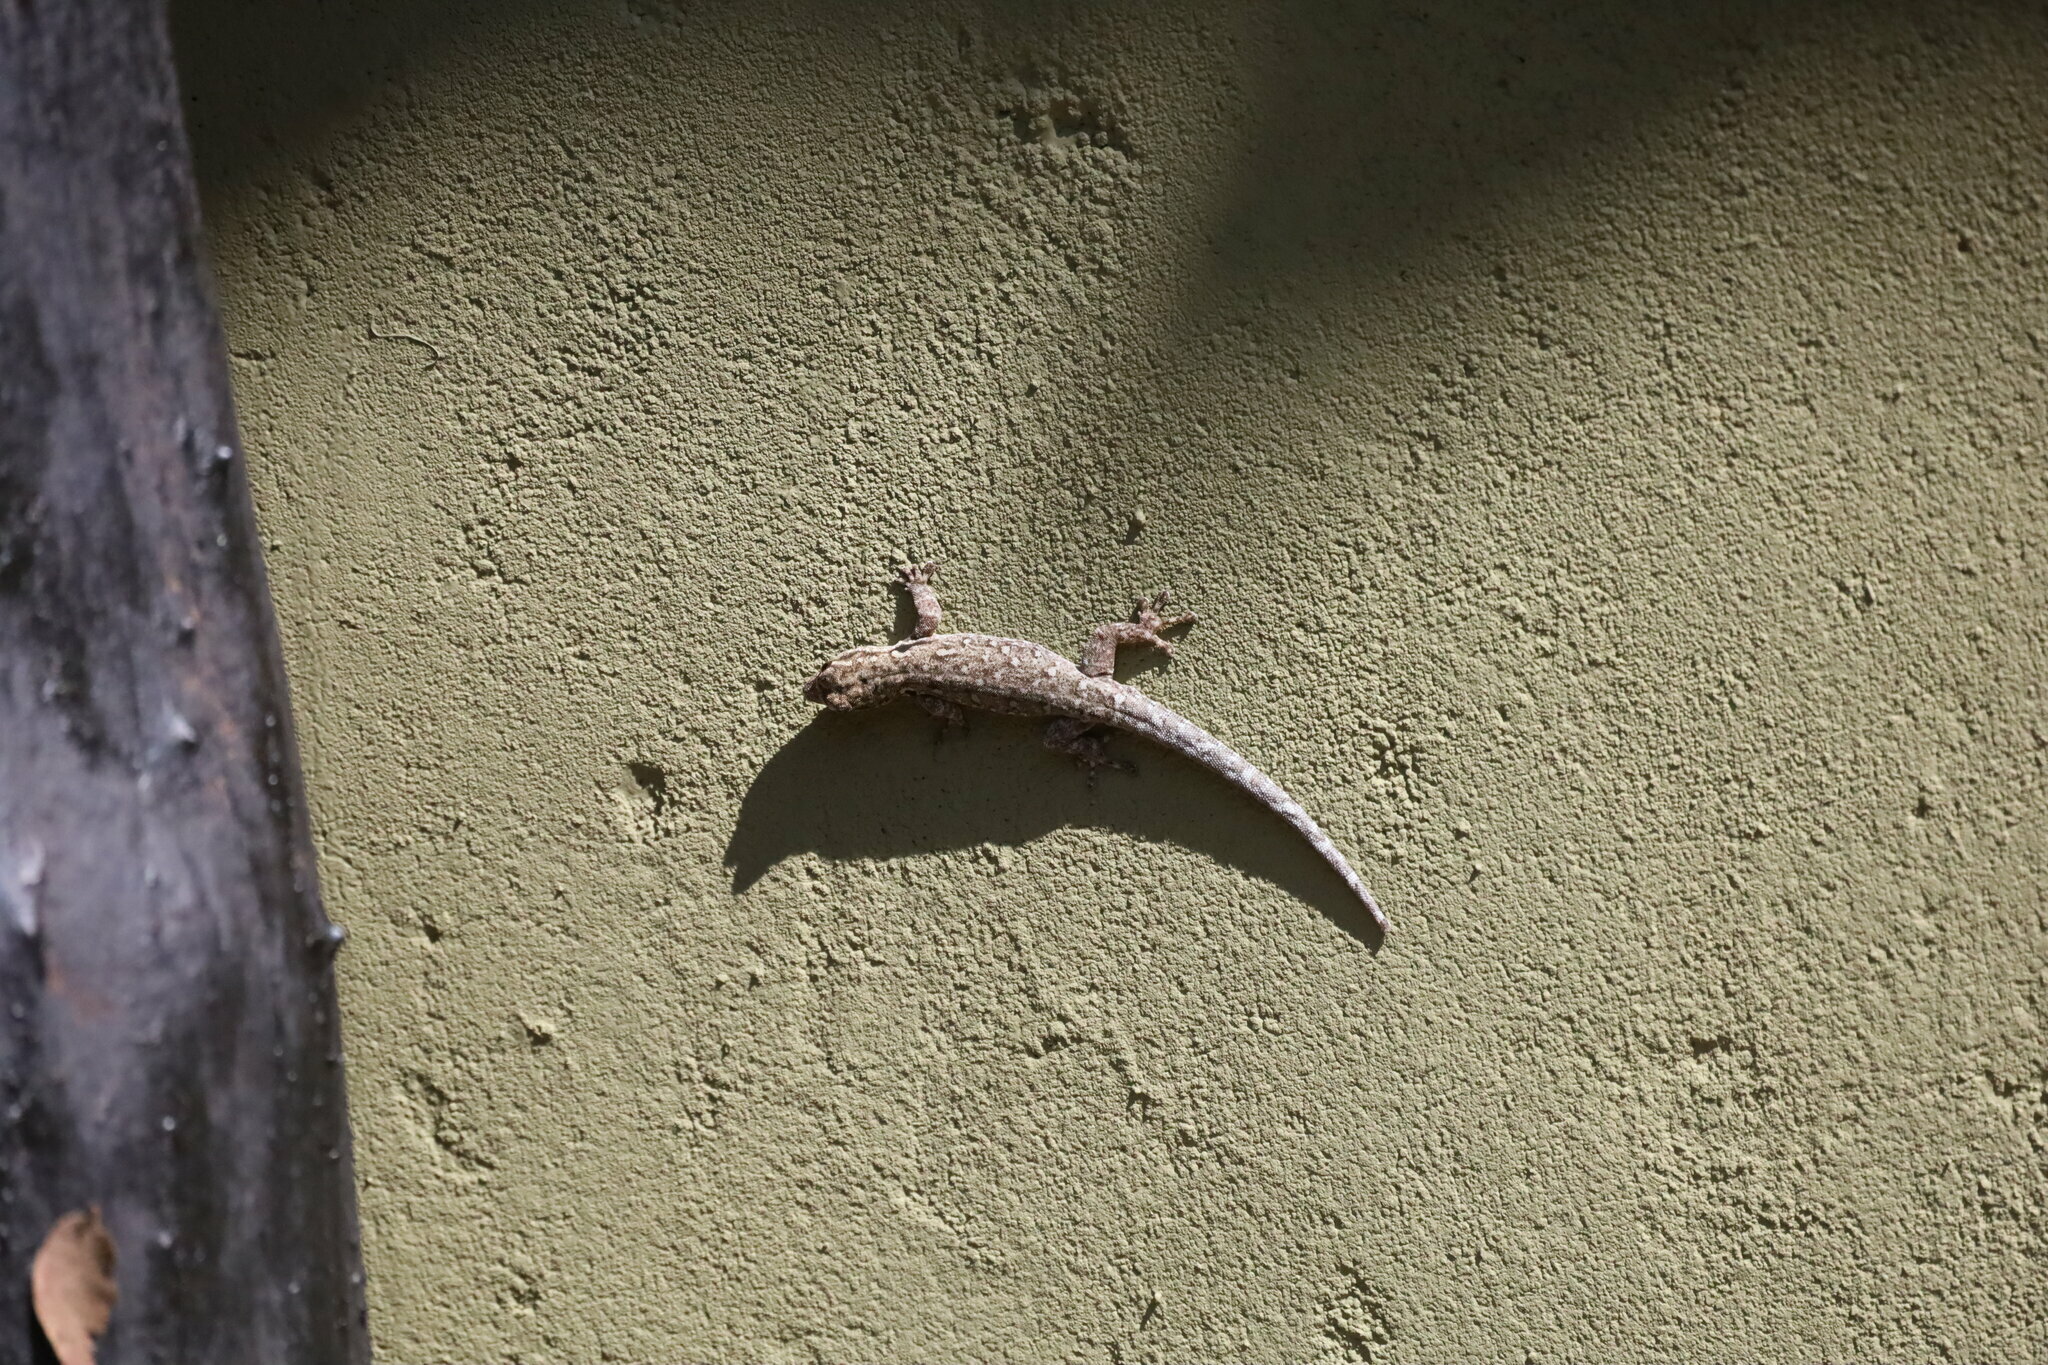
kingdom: Animalia
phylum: Chordata
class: Squamata
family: Gekkonidae
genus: Lygodactylus
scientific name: Lygodactylus chobiensis
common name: Okavango dwarf gecko
